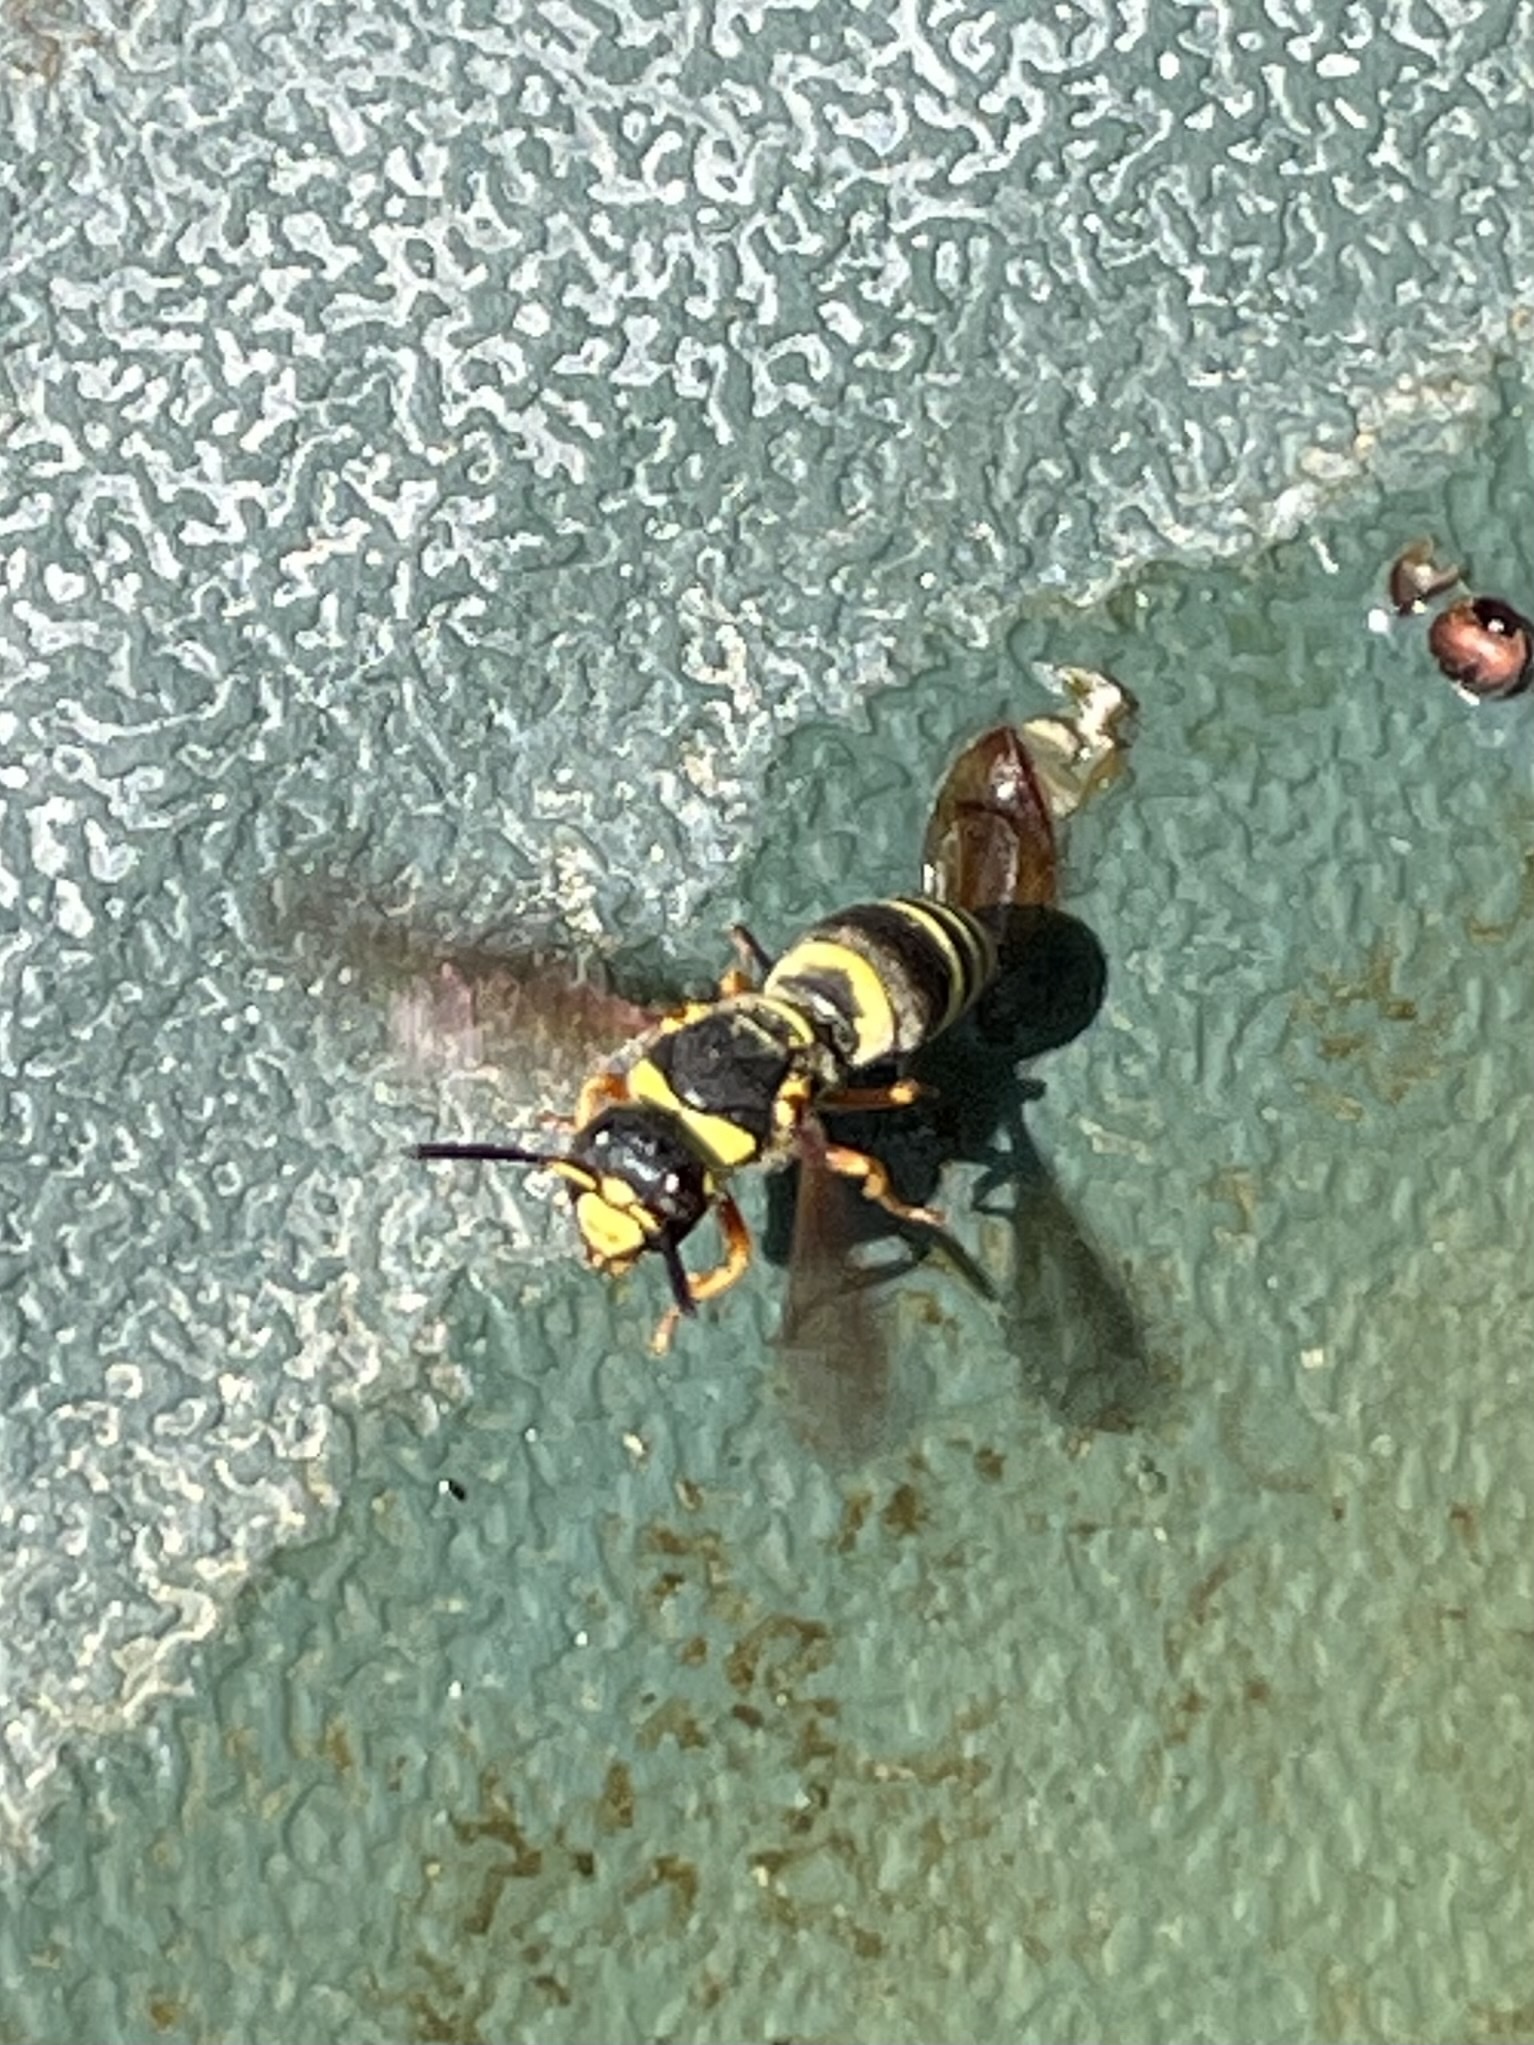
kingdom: Animalia
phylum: Arthropoda
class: Insecta
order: Hymenoptera
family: Eumenidae
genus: Euodynerus
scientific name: Euodynerus
